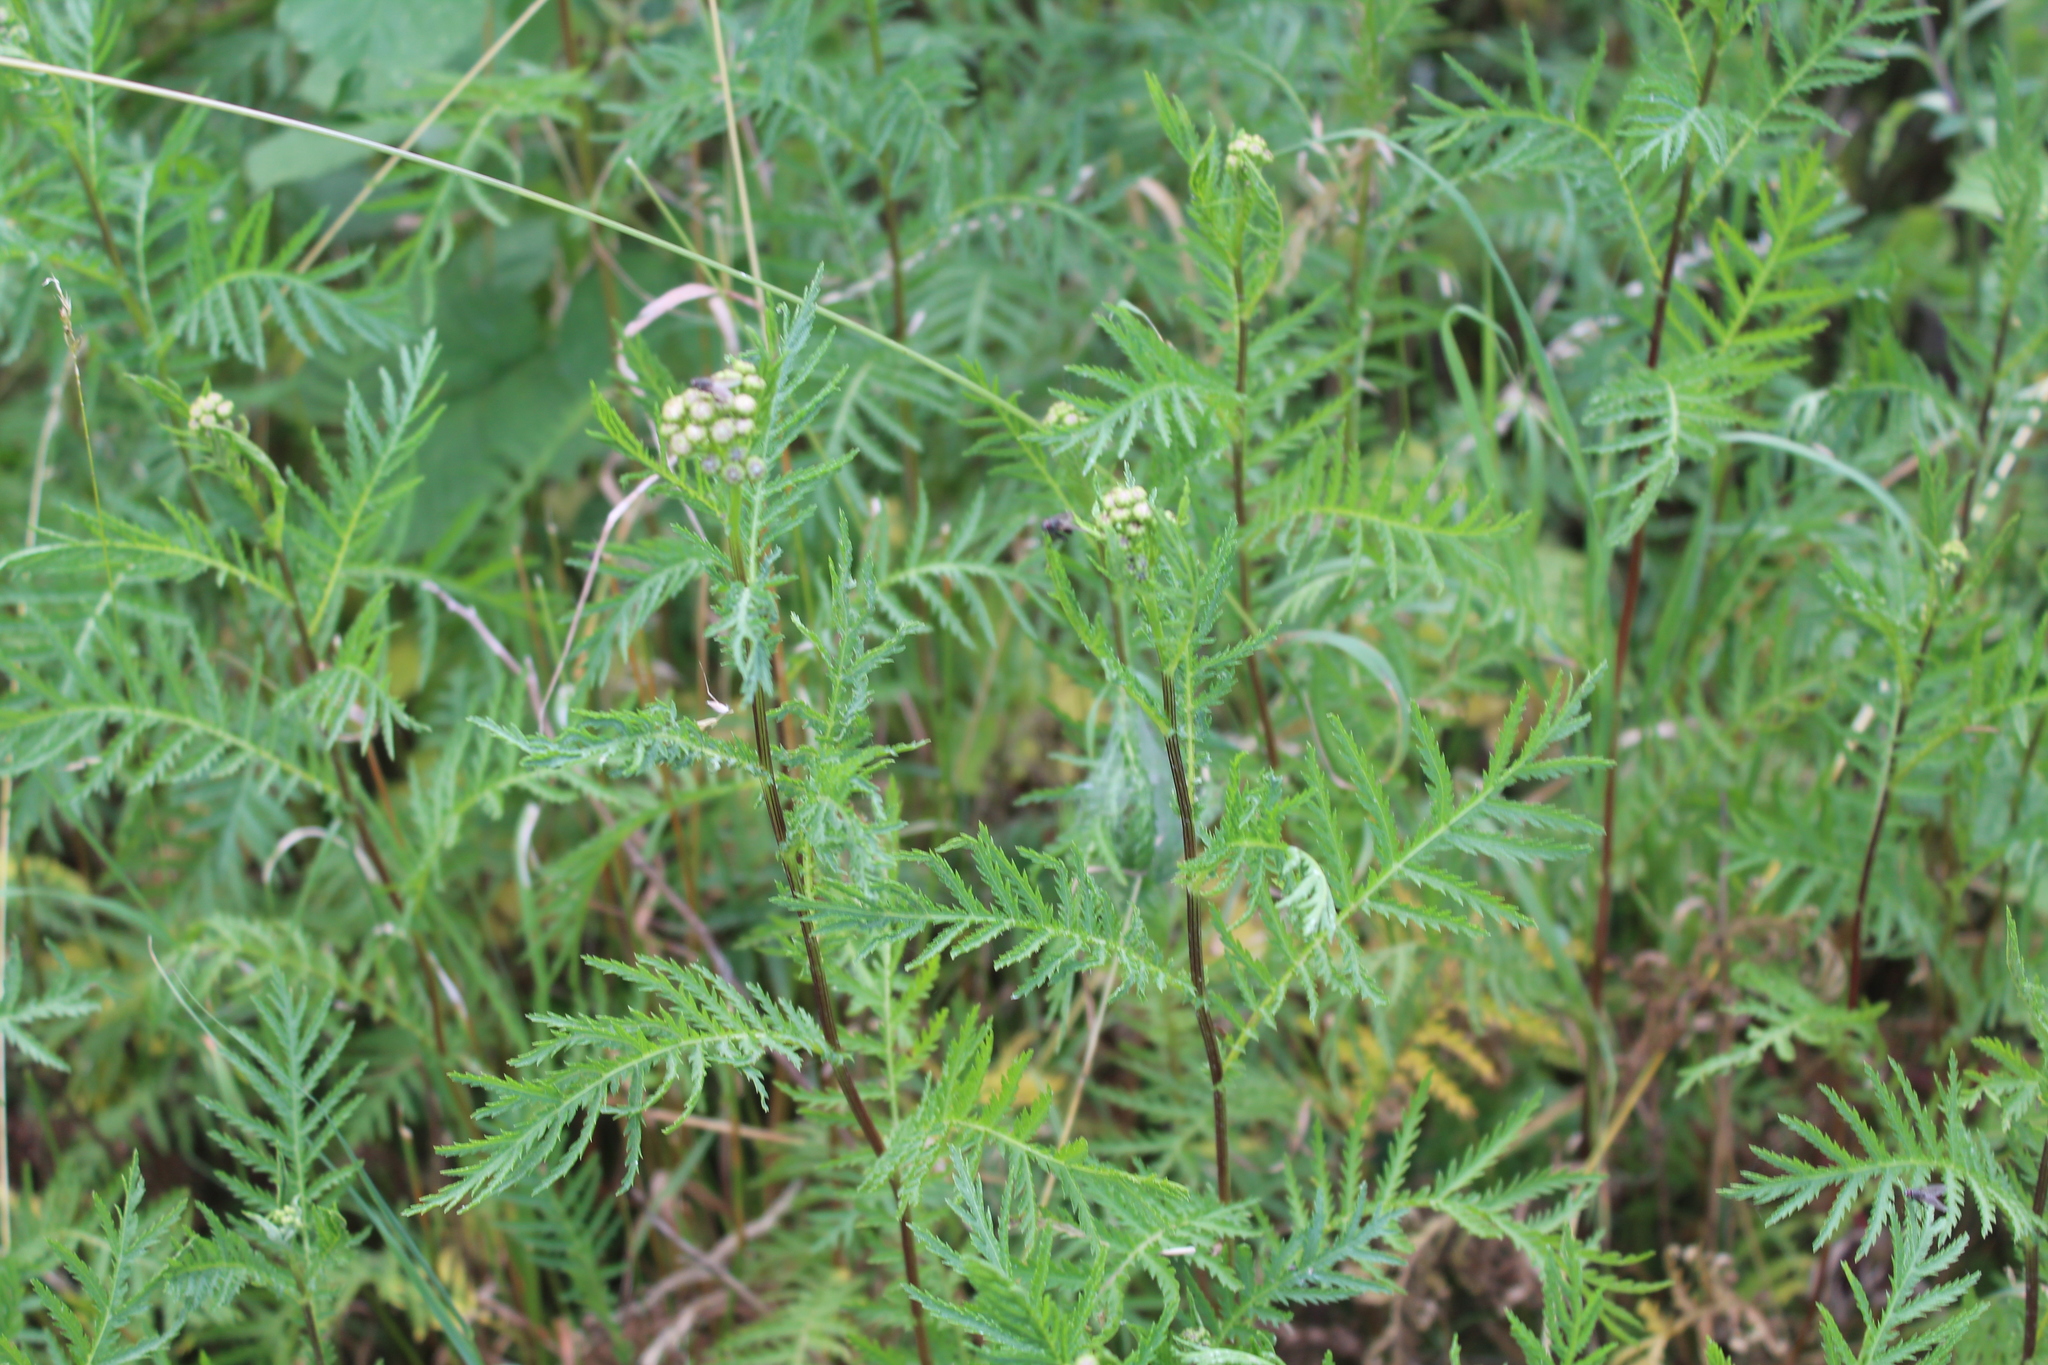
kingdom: Plantae
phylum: Tracheophyta
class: Magnoliopsida
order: Asterales
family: Asteraceae
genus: Tanacetum
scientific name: Tanacetum vulgare
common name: Common tansy
